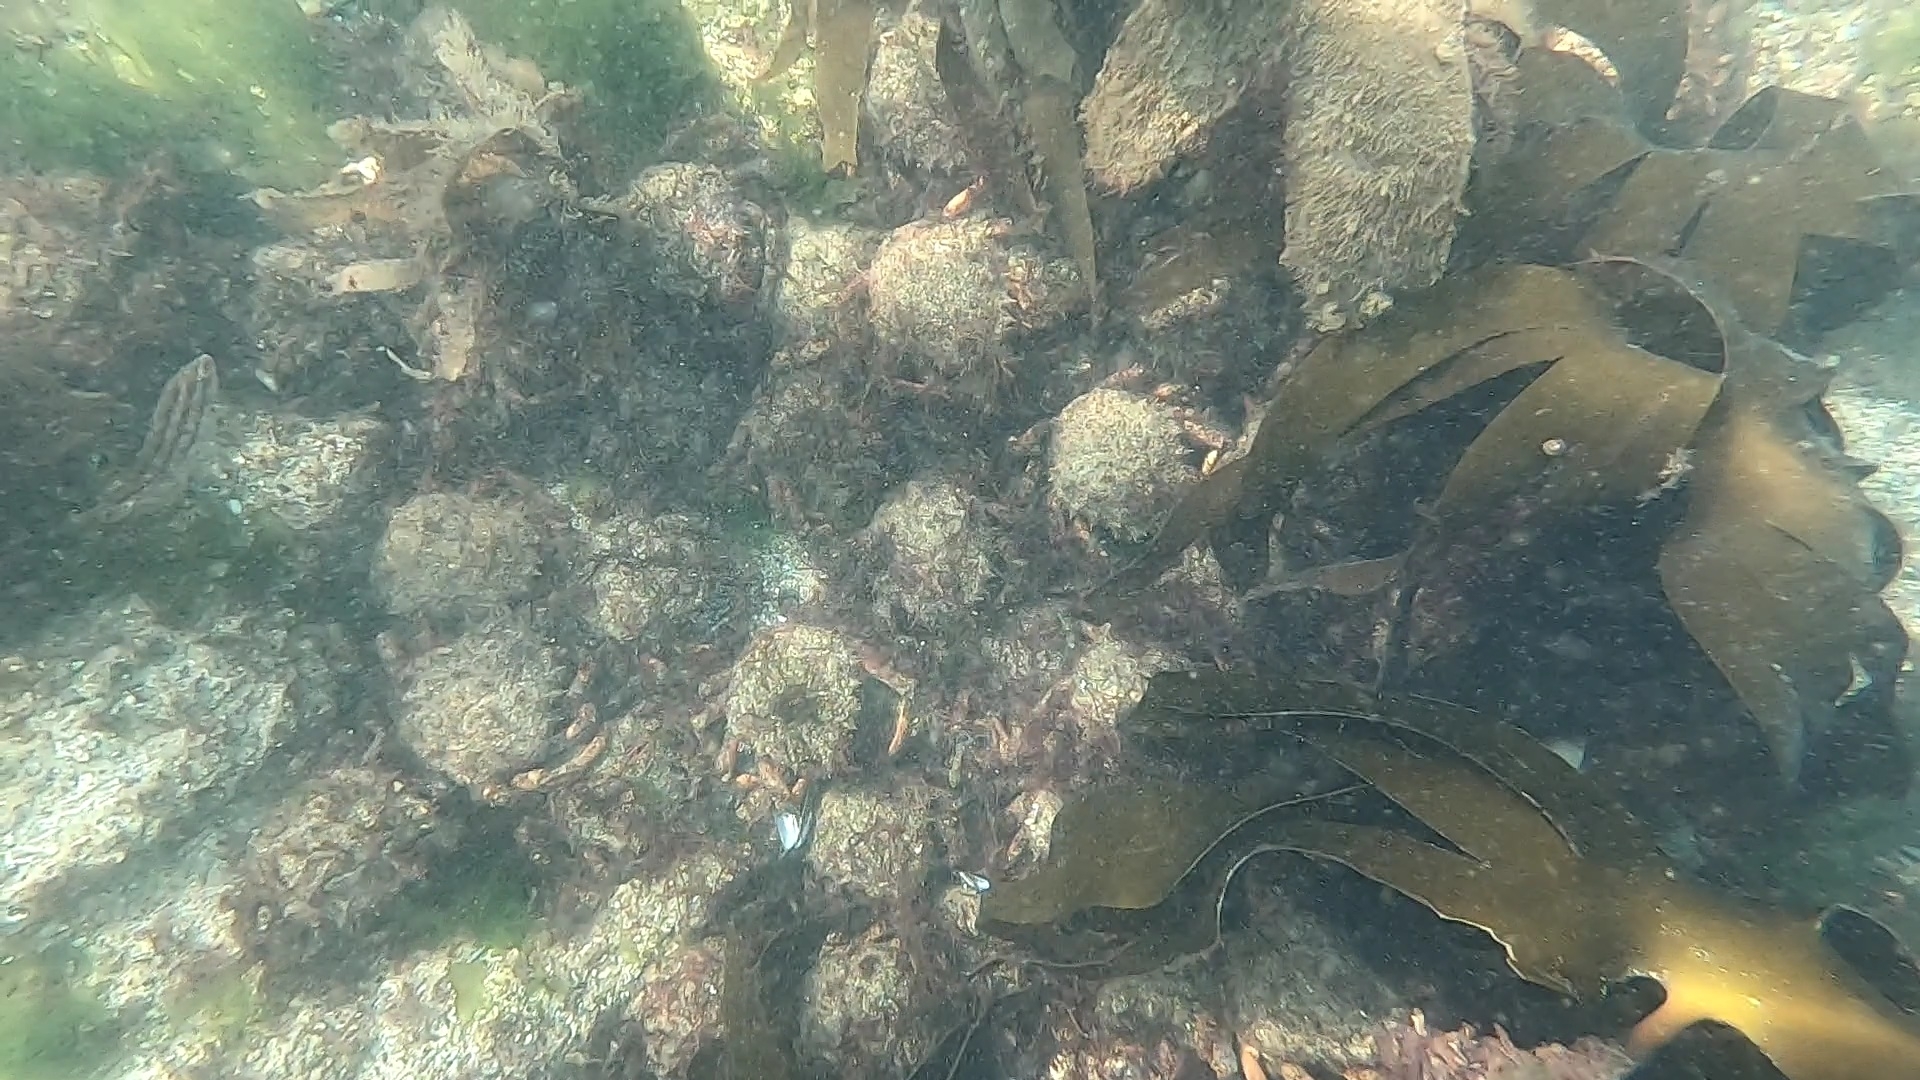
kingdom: Animalia
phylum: Arthropoda
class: Malacostraca
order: Decapoda
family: Majidae
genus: Maja
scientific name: Maja brachydactyla
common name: Common spider crab
